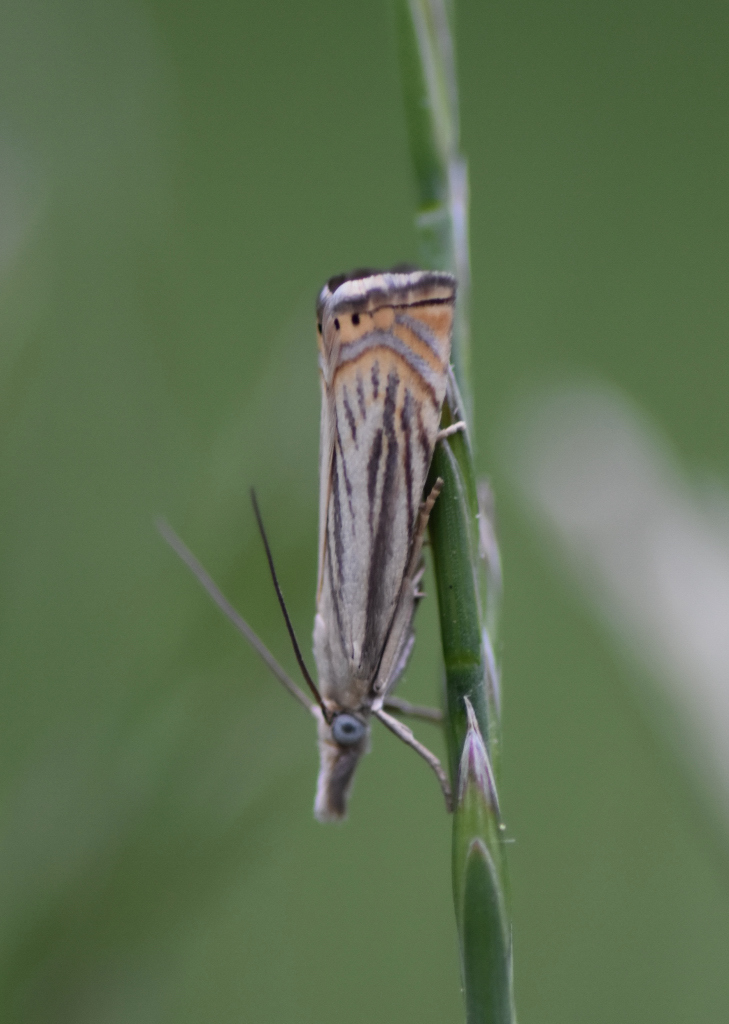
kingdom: Animalia
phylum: Arthropoda
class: Insecta
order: Lepidoptera
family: Crambidae
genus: Chrysoteuchia
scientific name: Chrysoteuchia topiarius
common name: Topiary grass-veneer
